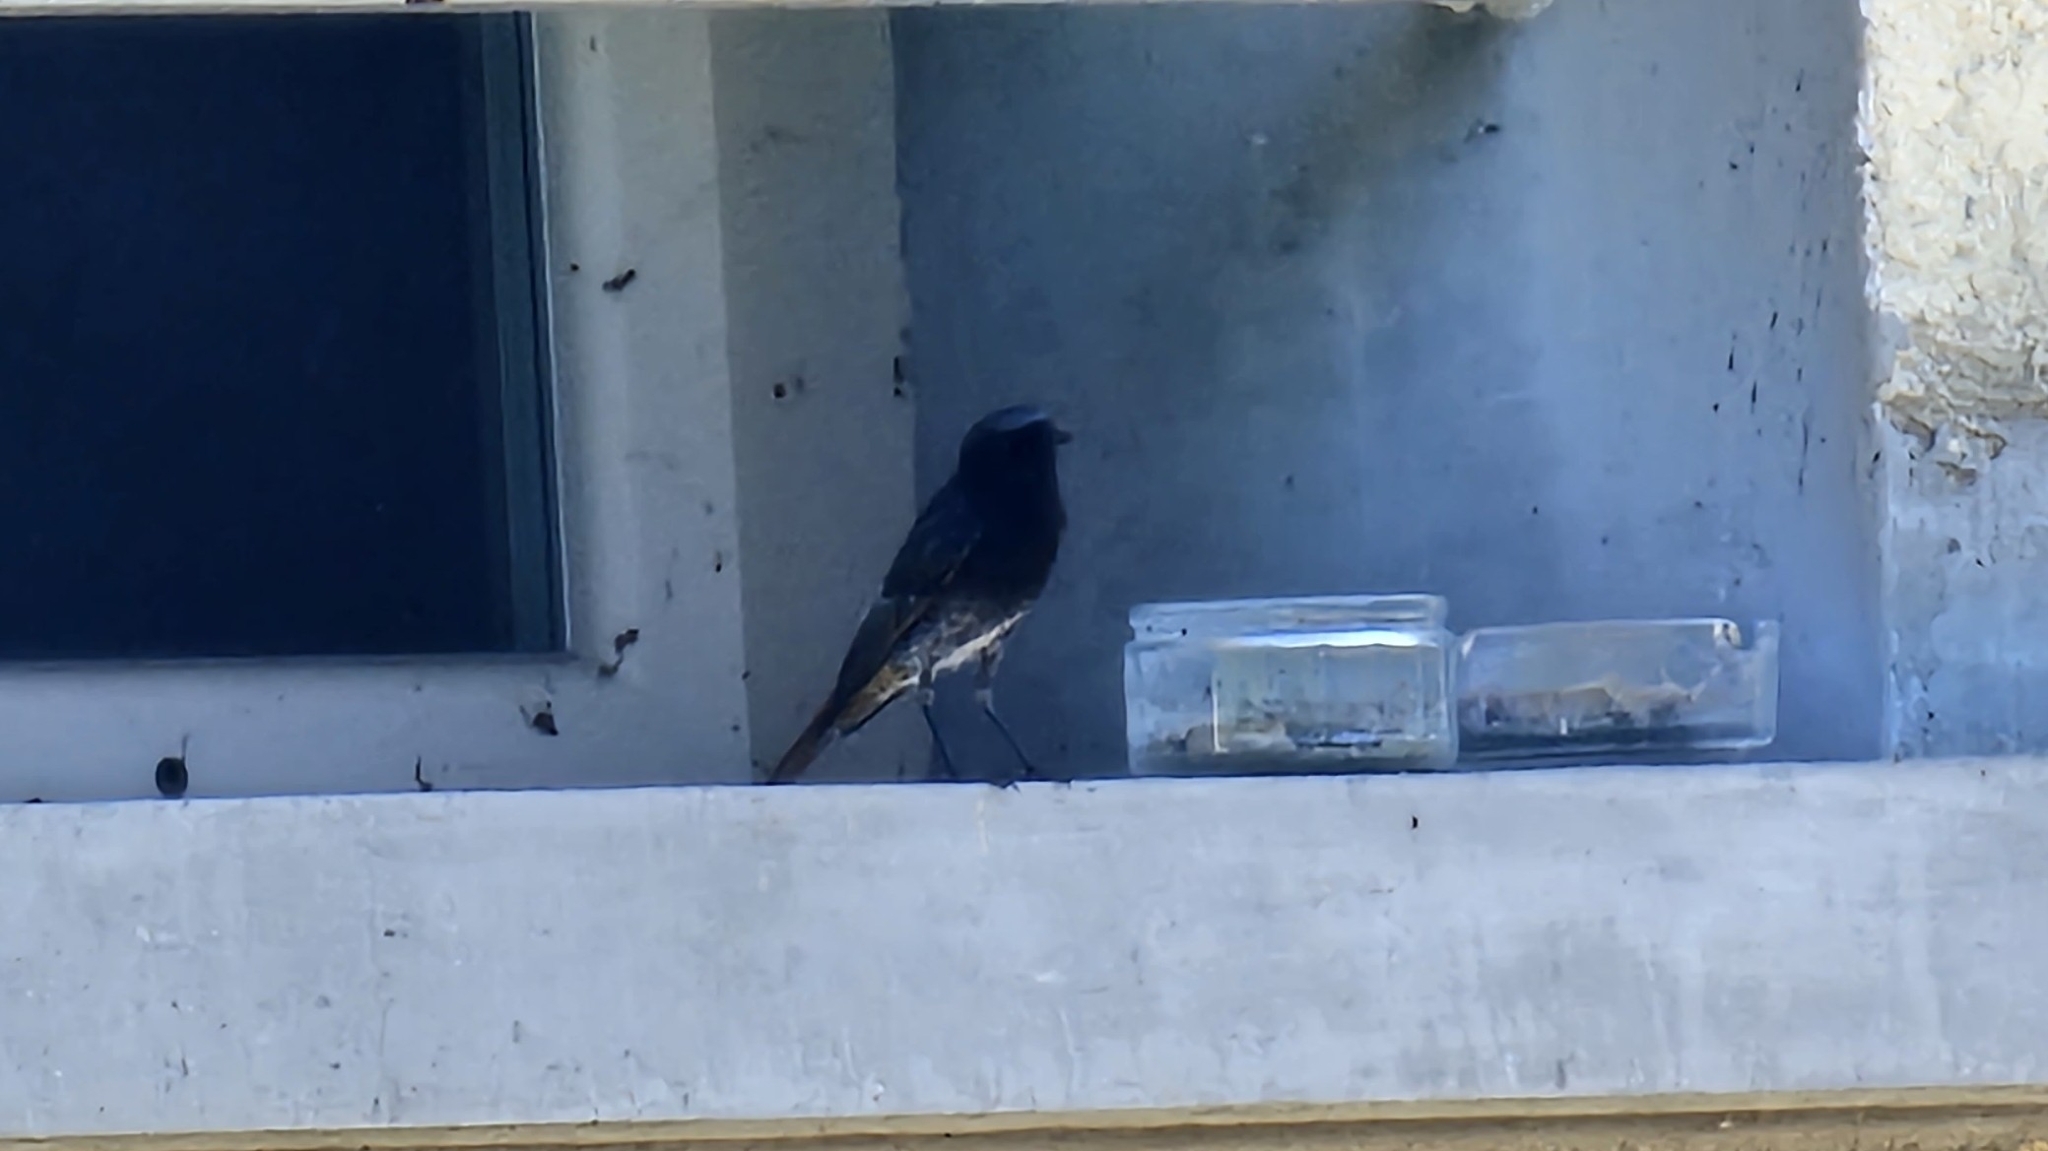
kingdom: Animalia
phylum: Chordata
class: Aves
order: Passeriformes
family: Muscicapidae
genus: Phoenicurus
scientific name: Phoenicurus ochruros
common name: Black redstart
